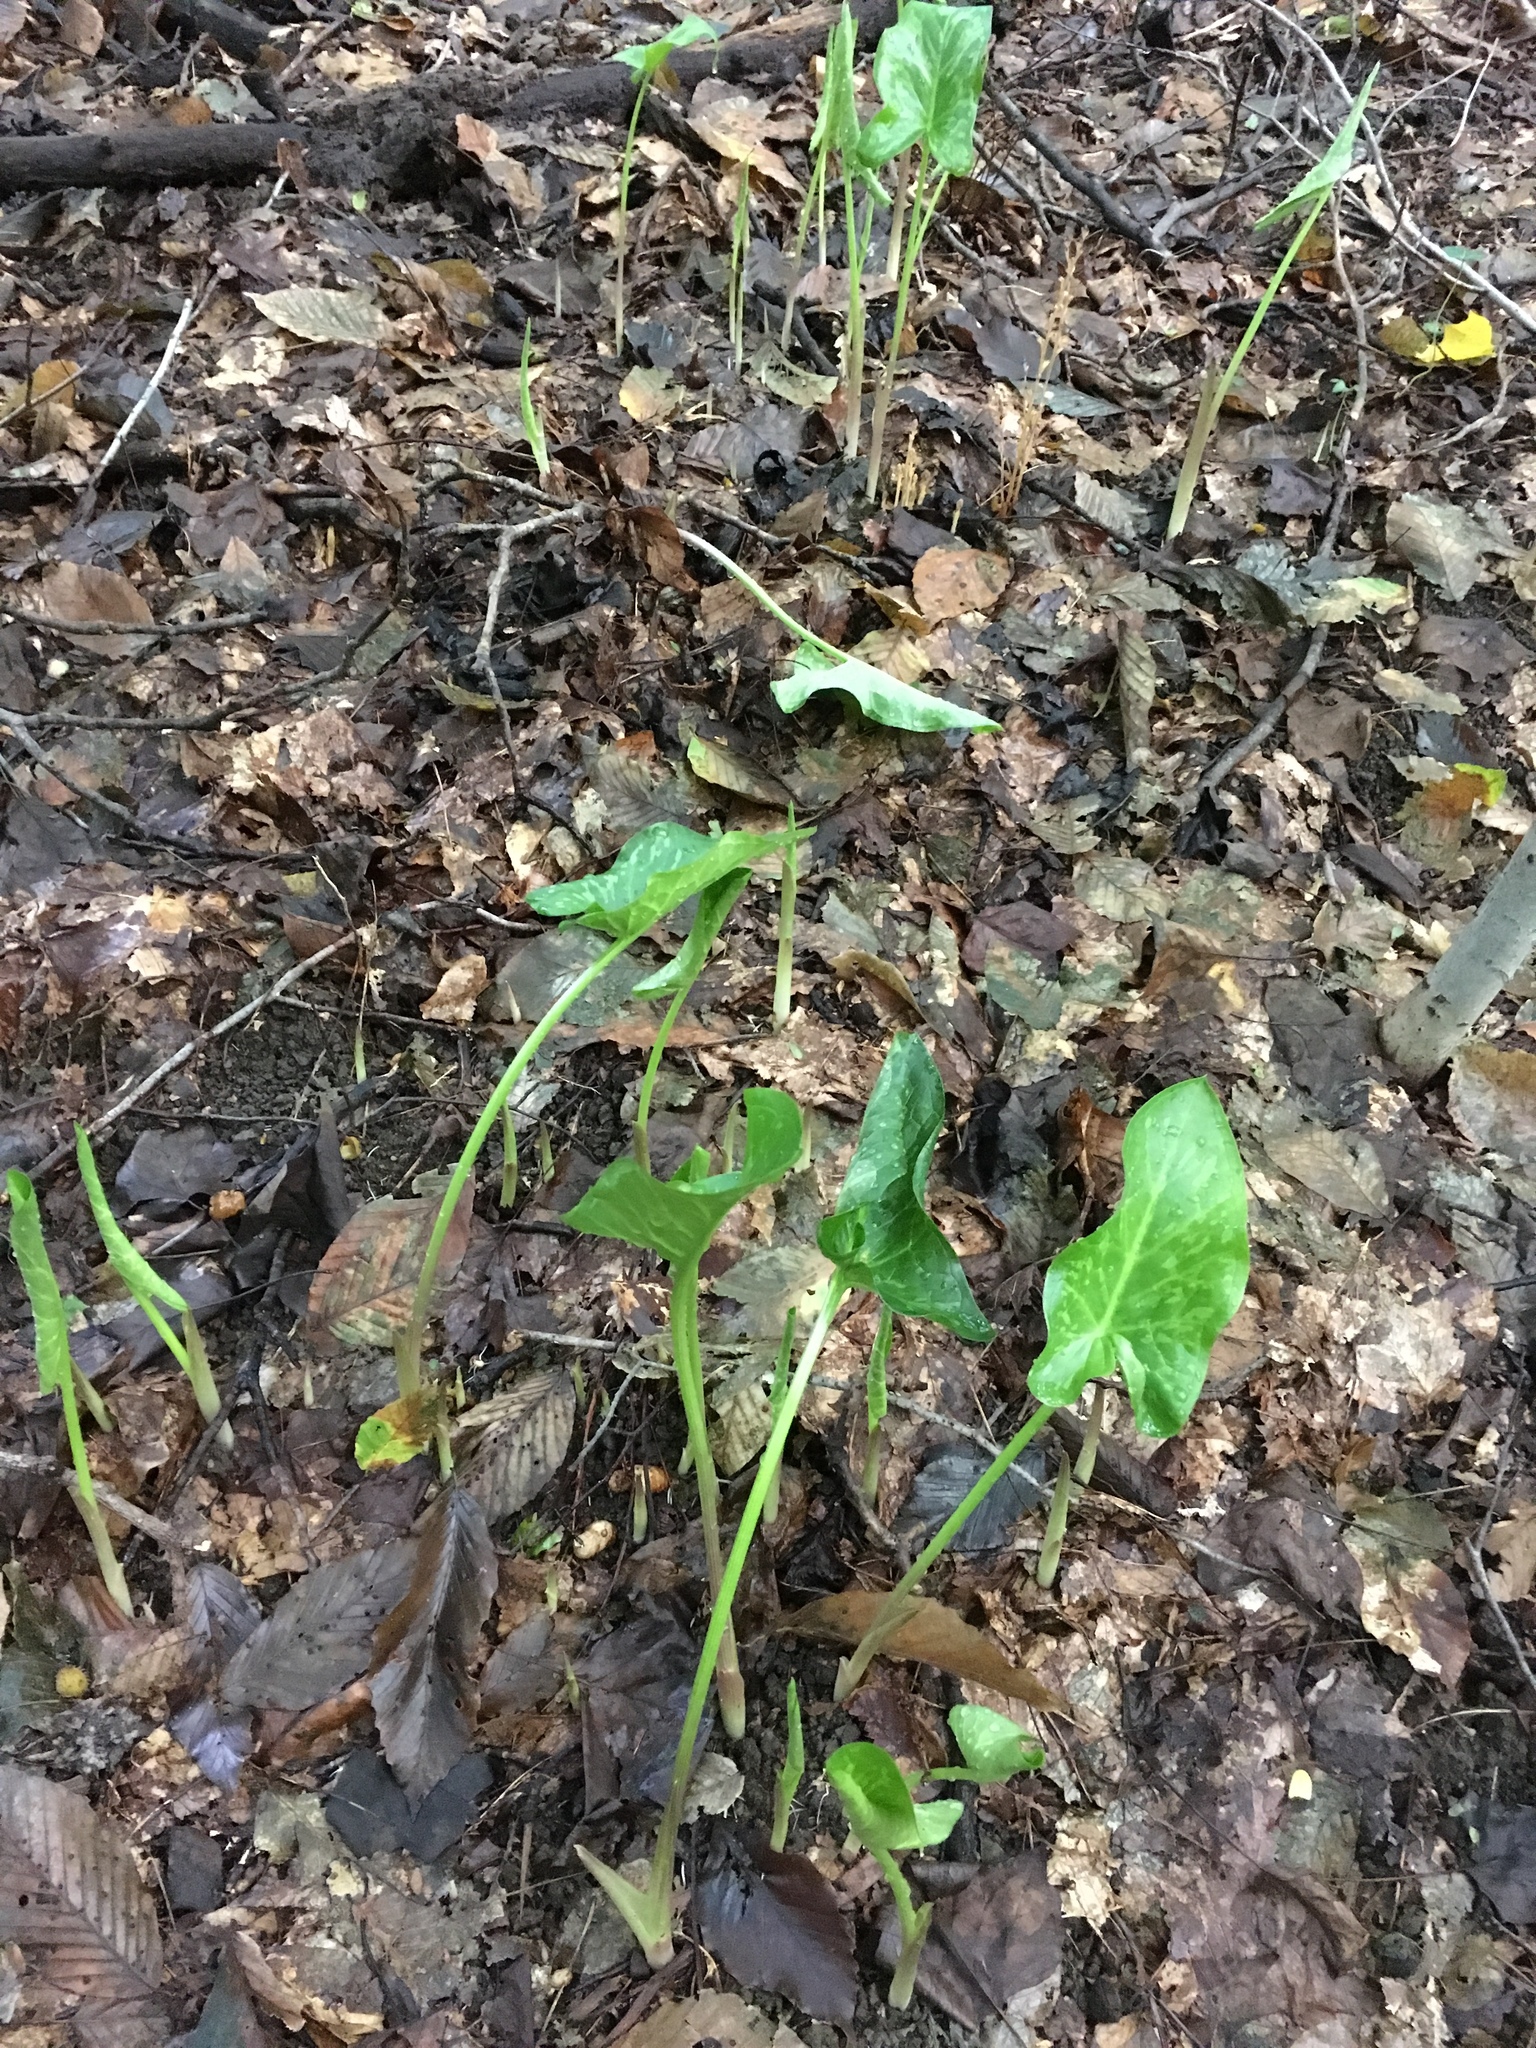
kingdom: Plantae
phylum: Tracheophyta
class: Liliopsida
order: Alismatales
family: Araceae
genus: Arum
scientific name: Arum italicum
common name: Italian lords-and-ladies
